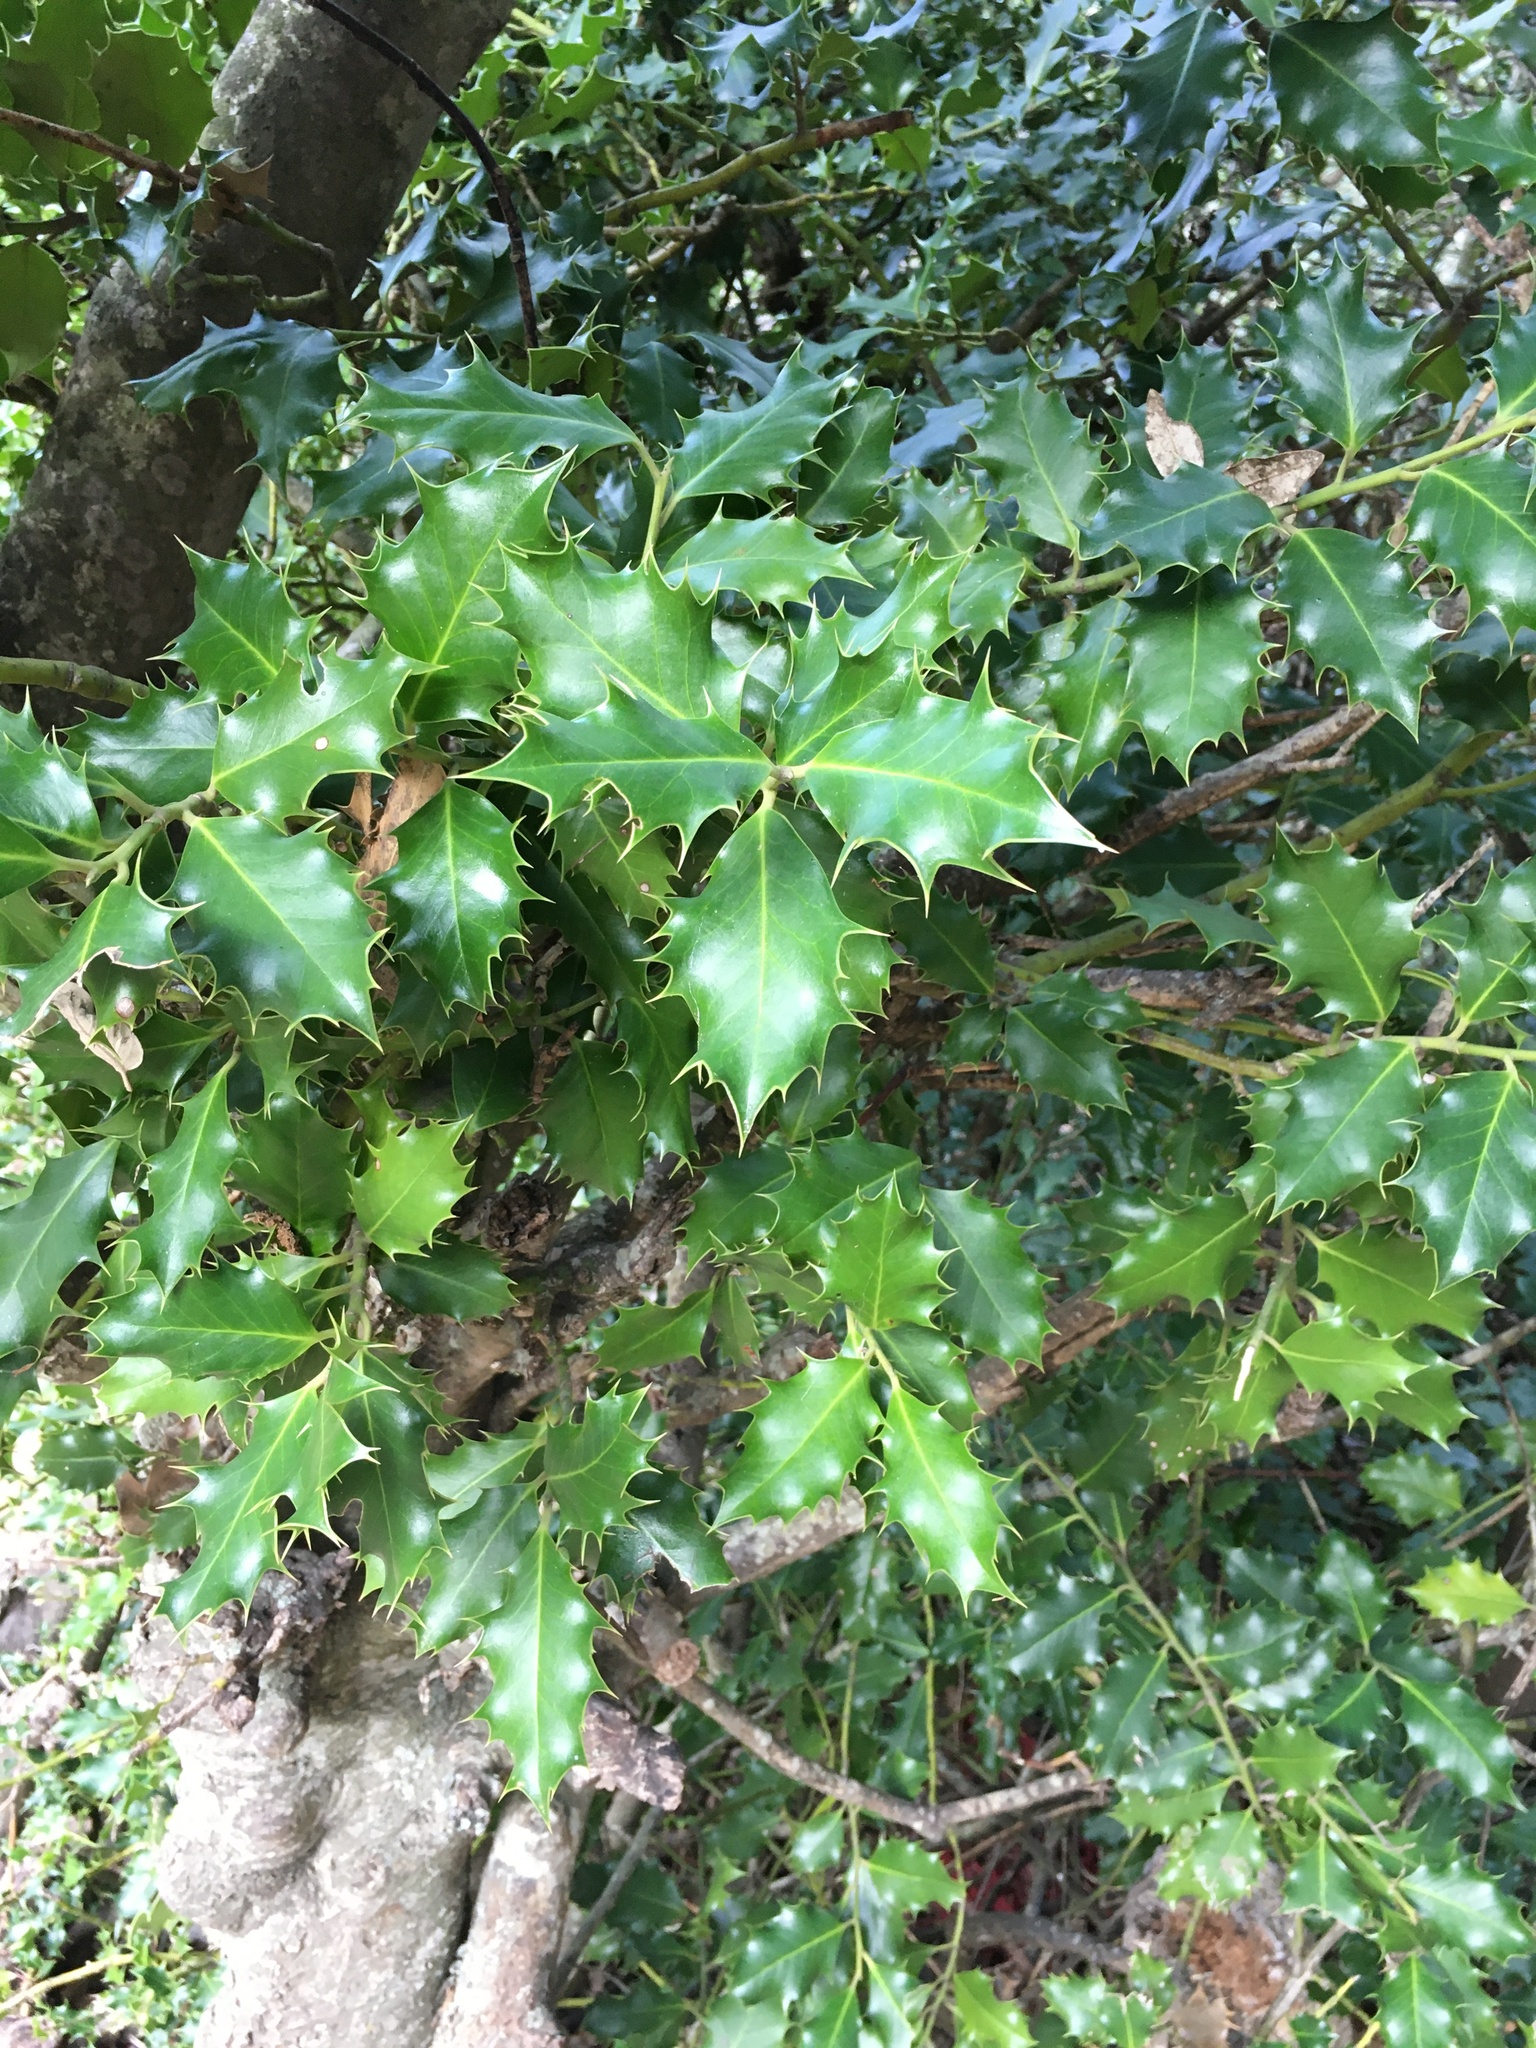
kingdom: Plantae
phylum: Tracheophyta
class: Magnoliopsida
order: Aquifoliales
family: Aquifoliaceae
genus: Ilex
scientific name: Ilex aquifolium
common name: English holly
